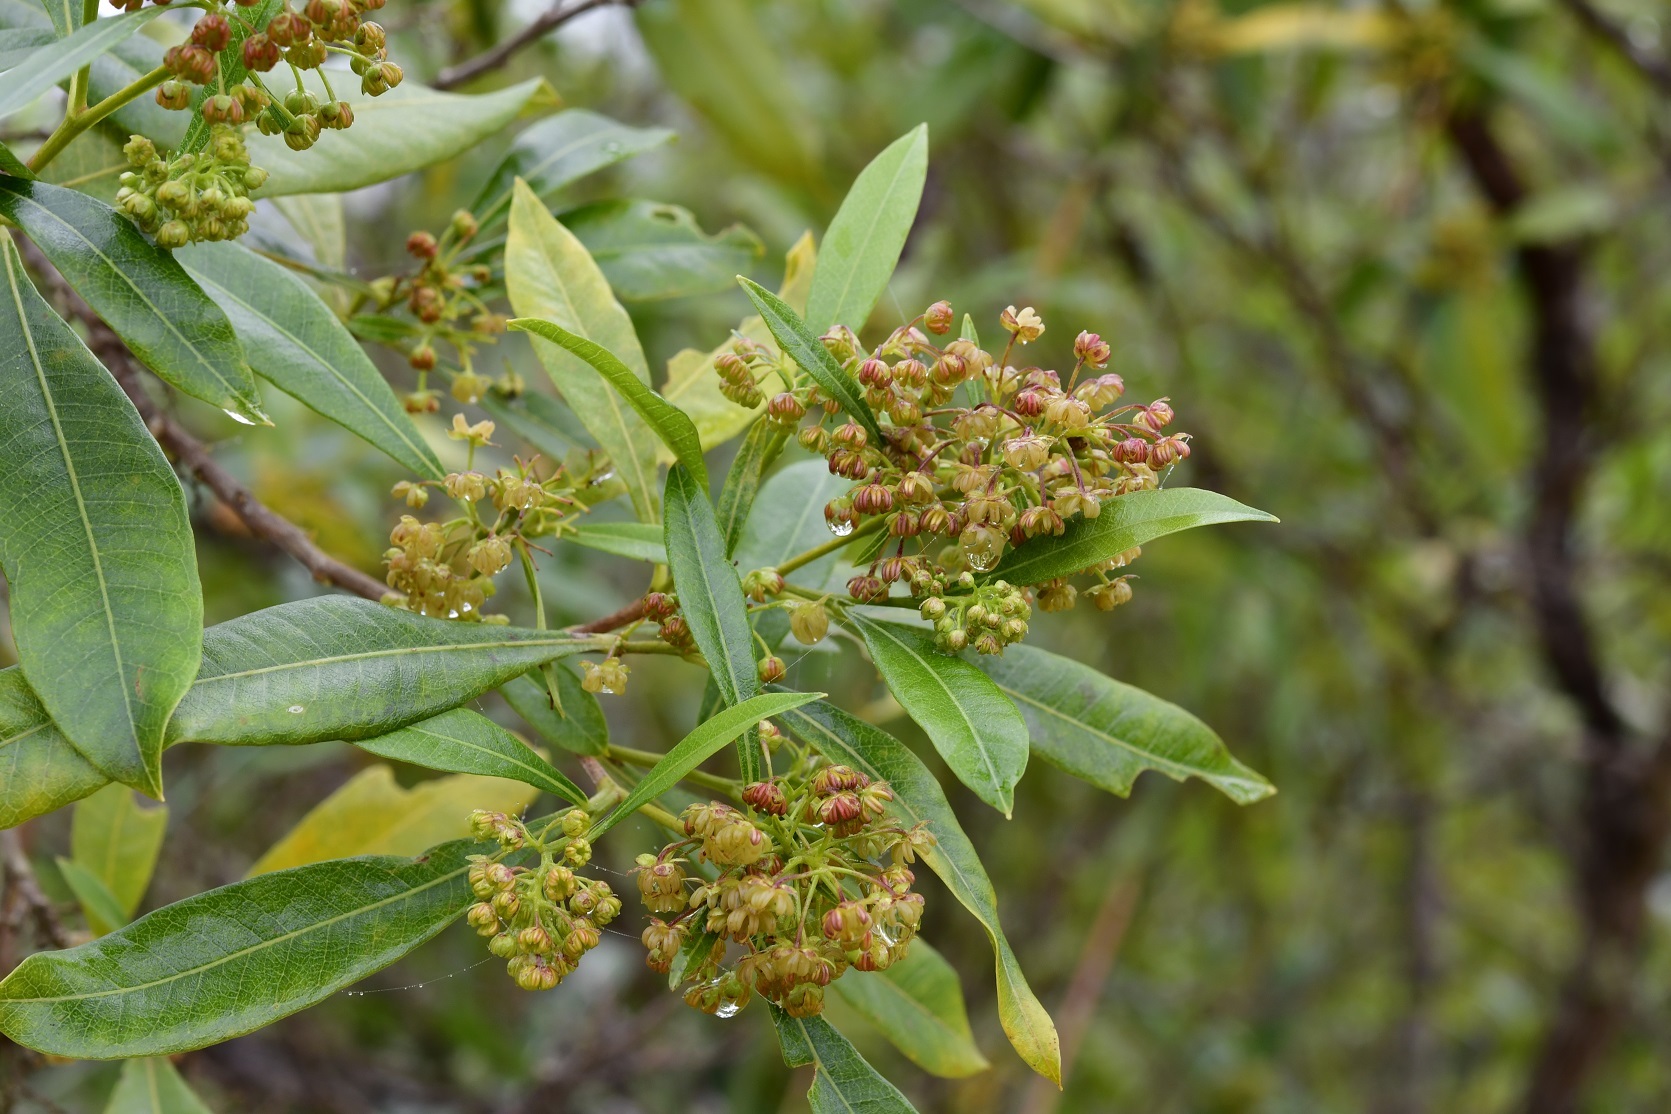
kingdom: Plantae
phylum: Tracheophyta
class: Magnoliopsida
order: Sapindales
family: Sapindaceae
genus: Dodonaea
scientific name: Dodonaea viscosa
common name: Hopbush
